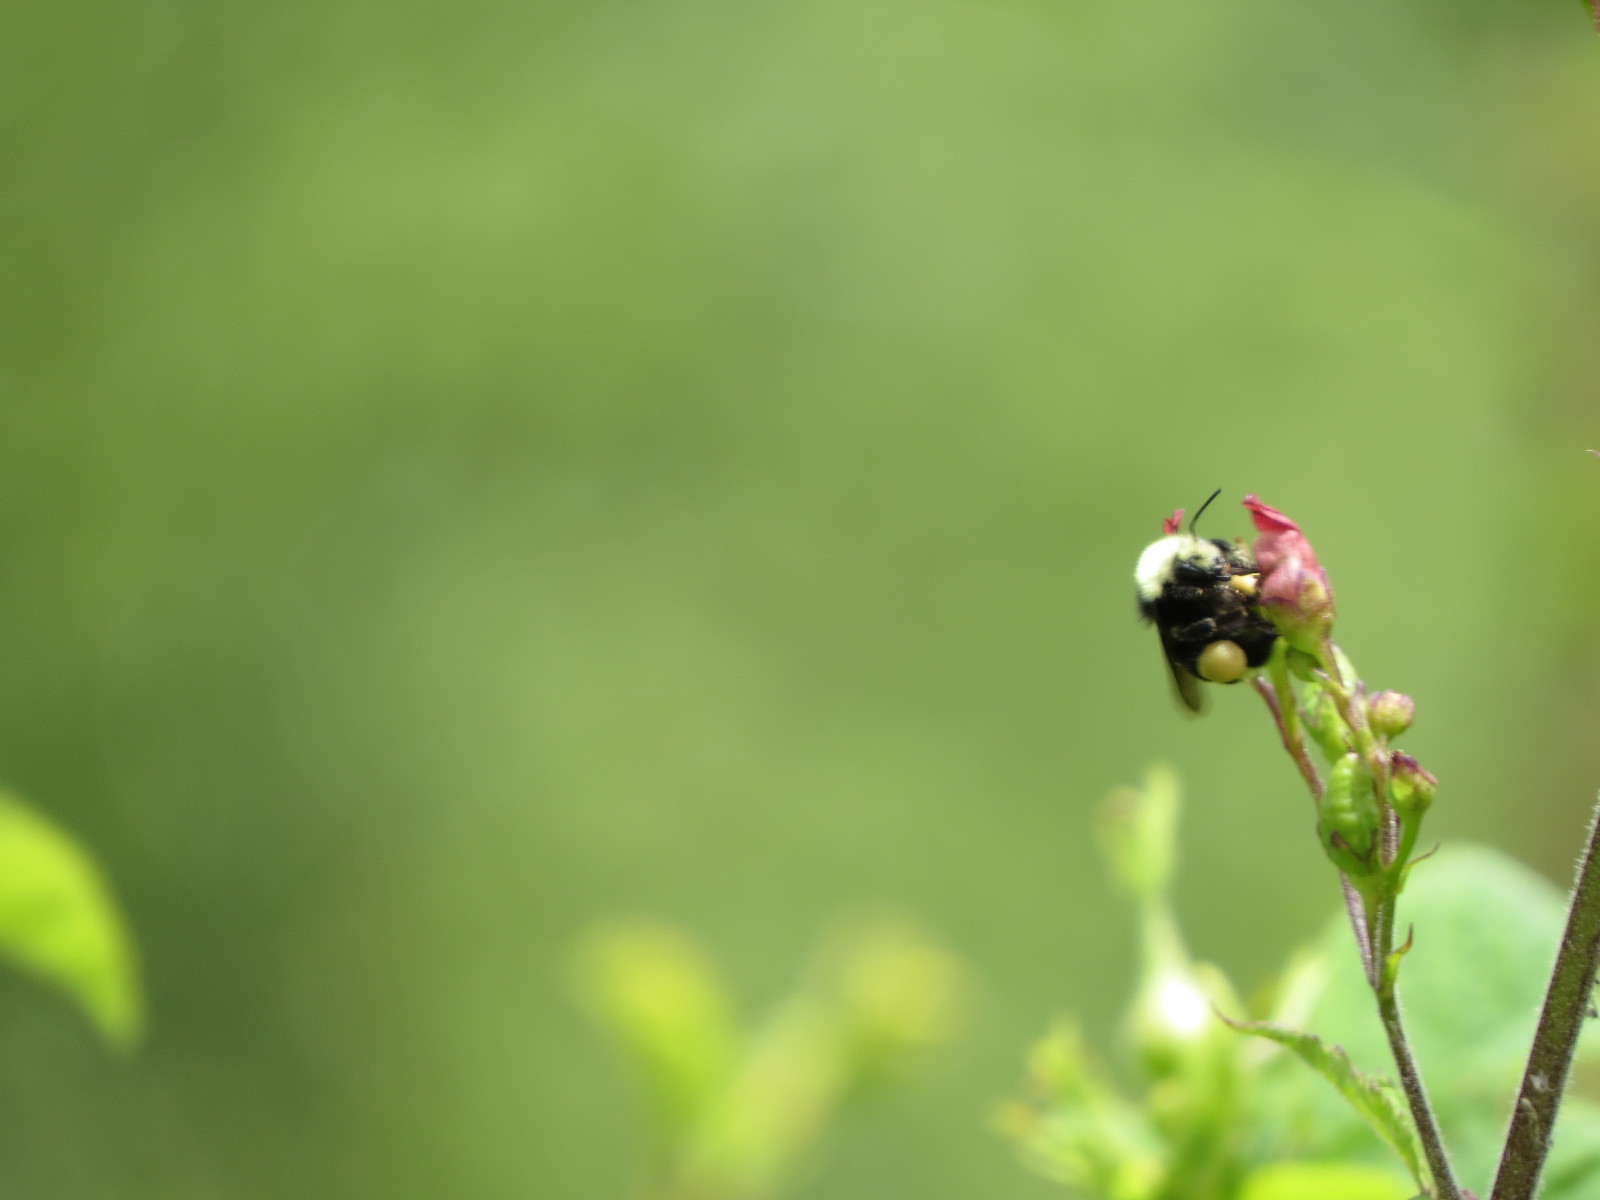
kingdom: Animalia
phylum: Arthropoda
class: Insecta
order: Hymenoptera
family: Apidae
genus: Pyrobombus
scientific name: Pyrobombus
